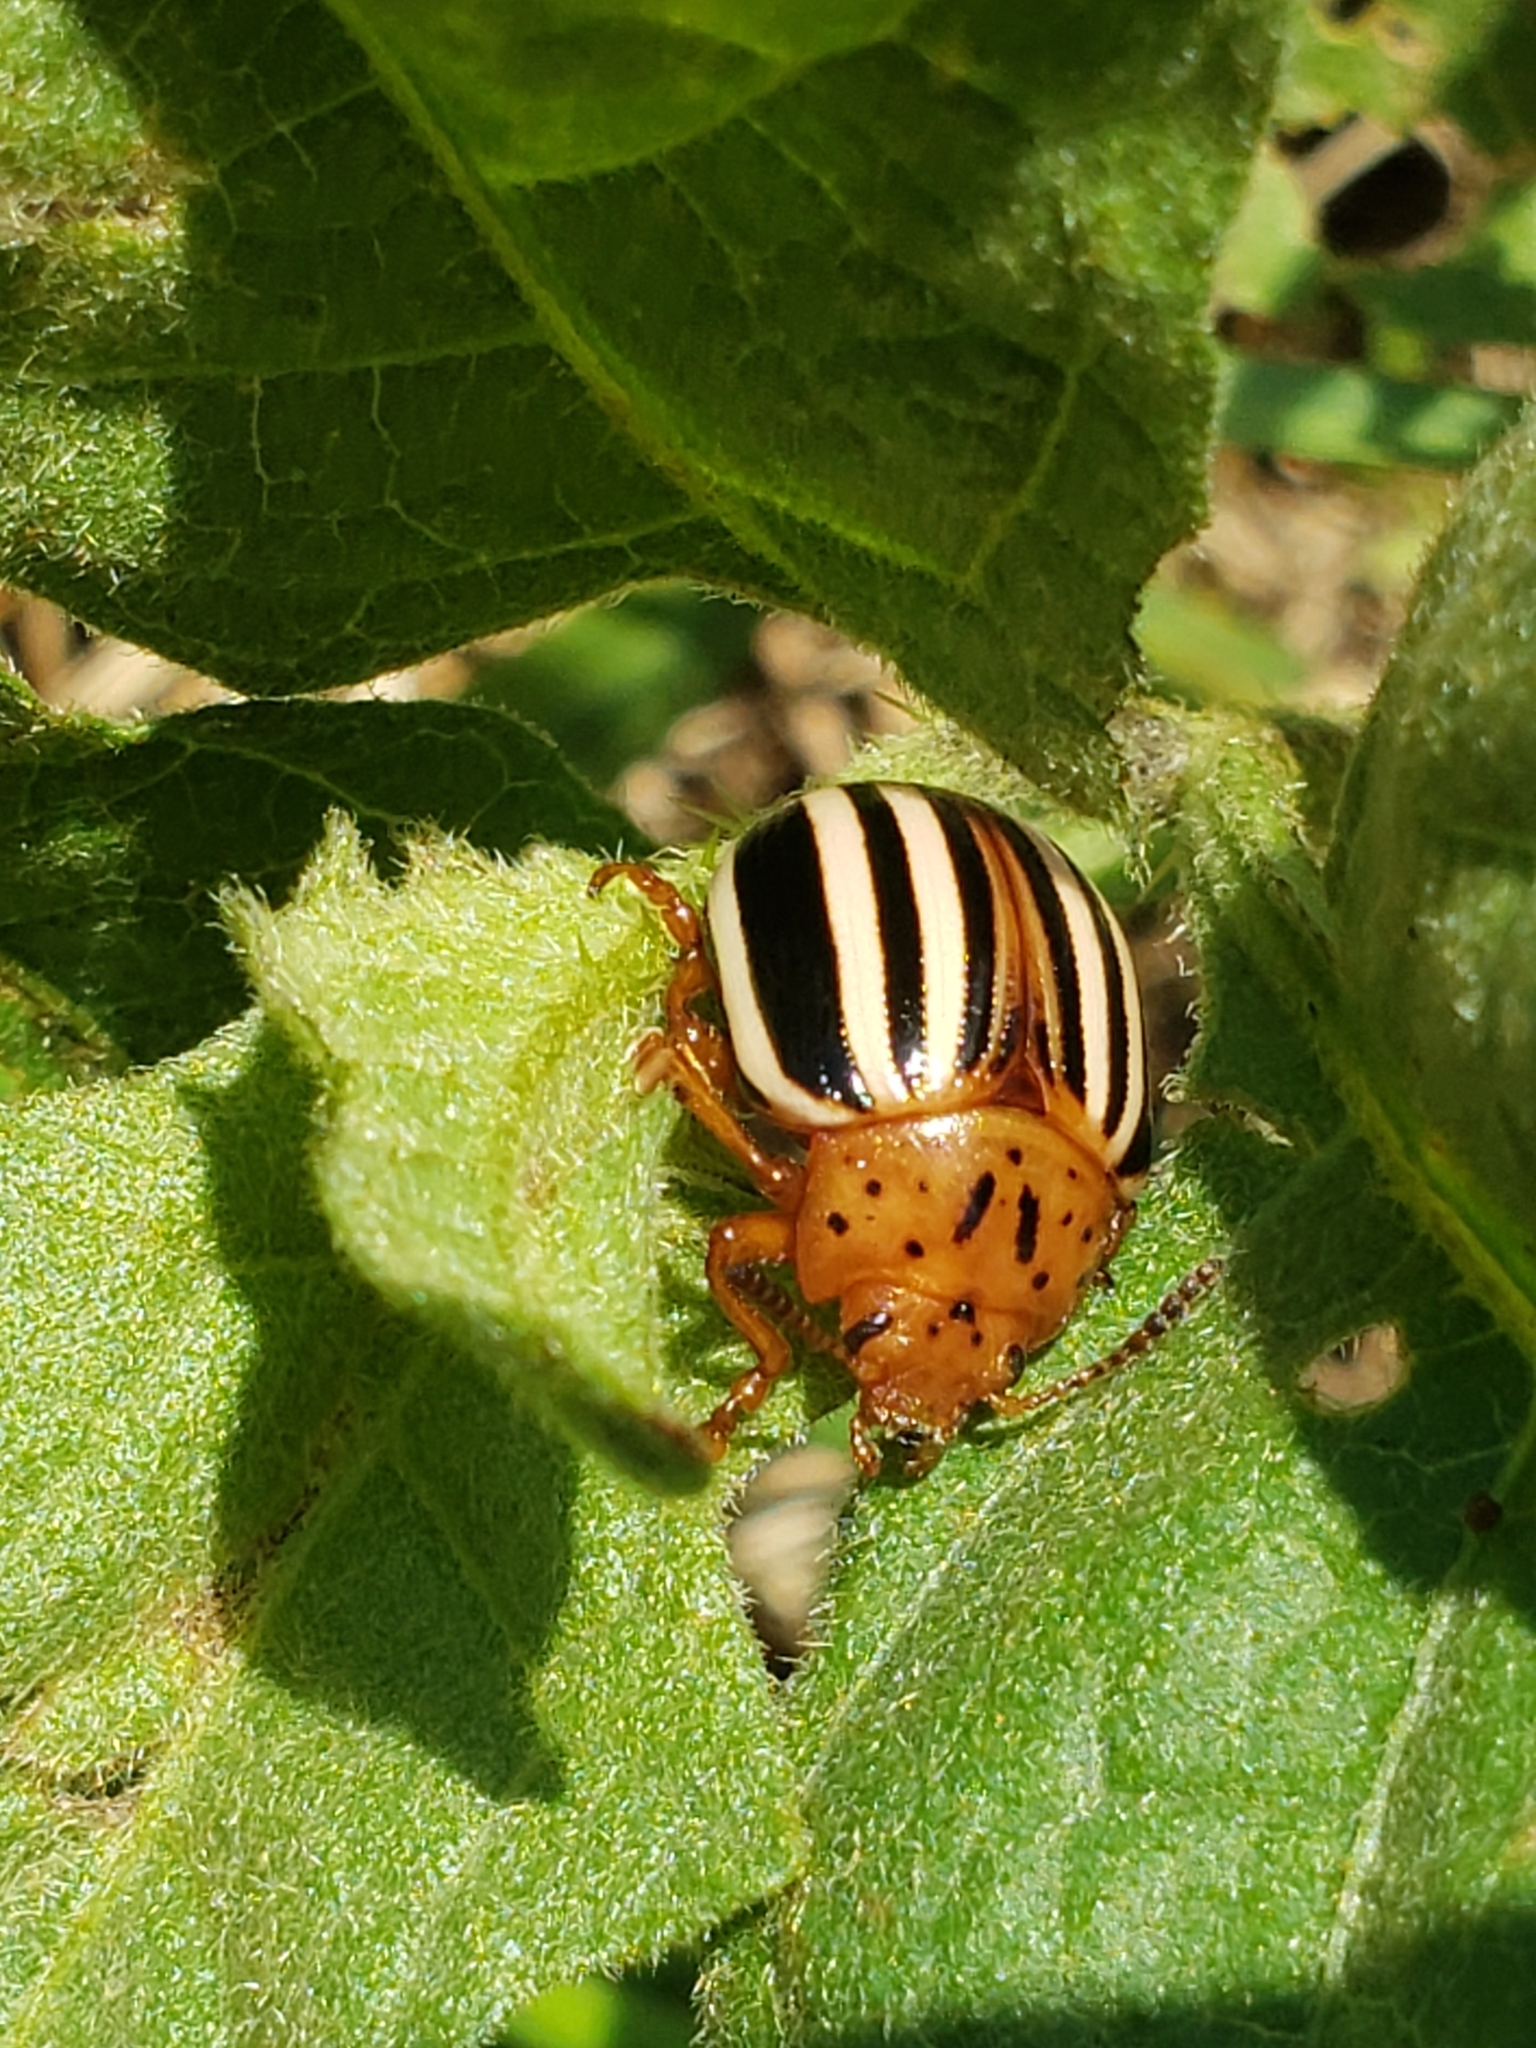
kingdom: Animalia
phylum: Arthropoda
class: Insecta
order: Coleoptera
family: Chrysomelidae
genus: Leptinotarsa
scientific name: Leptinotarsa juncta
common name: False potato beetle
